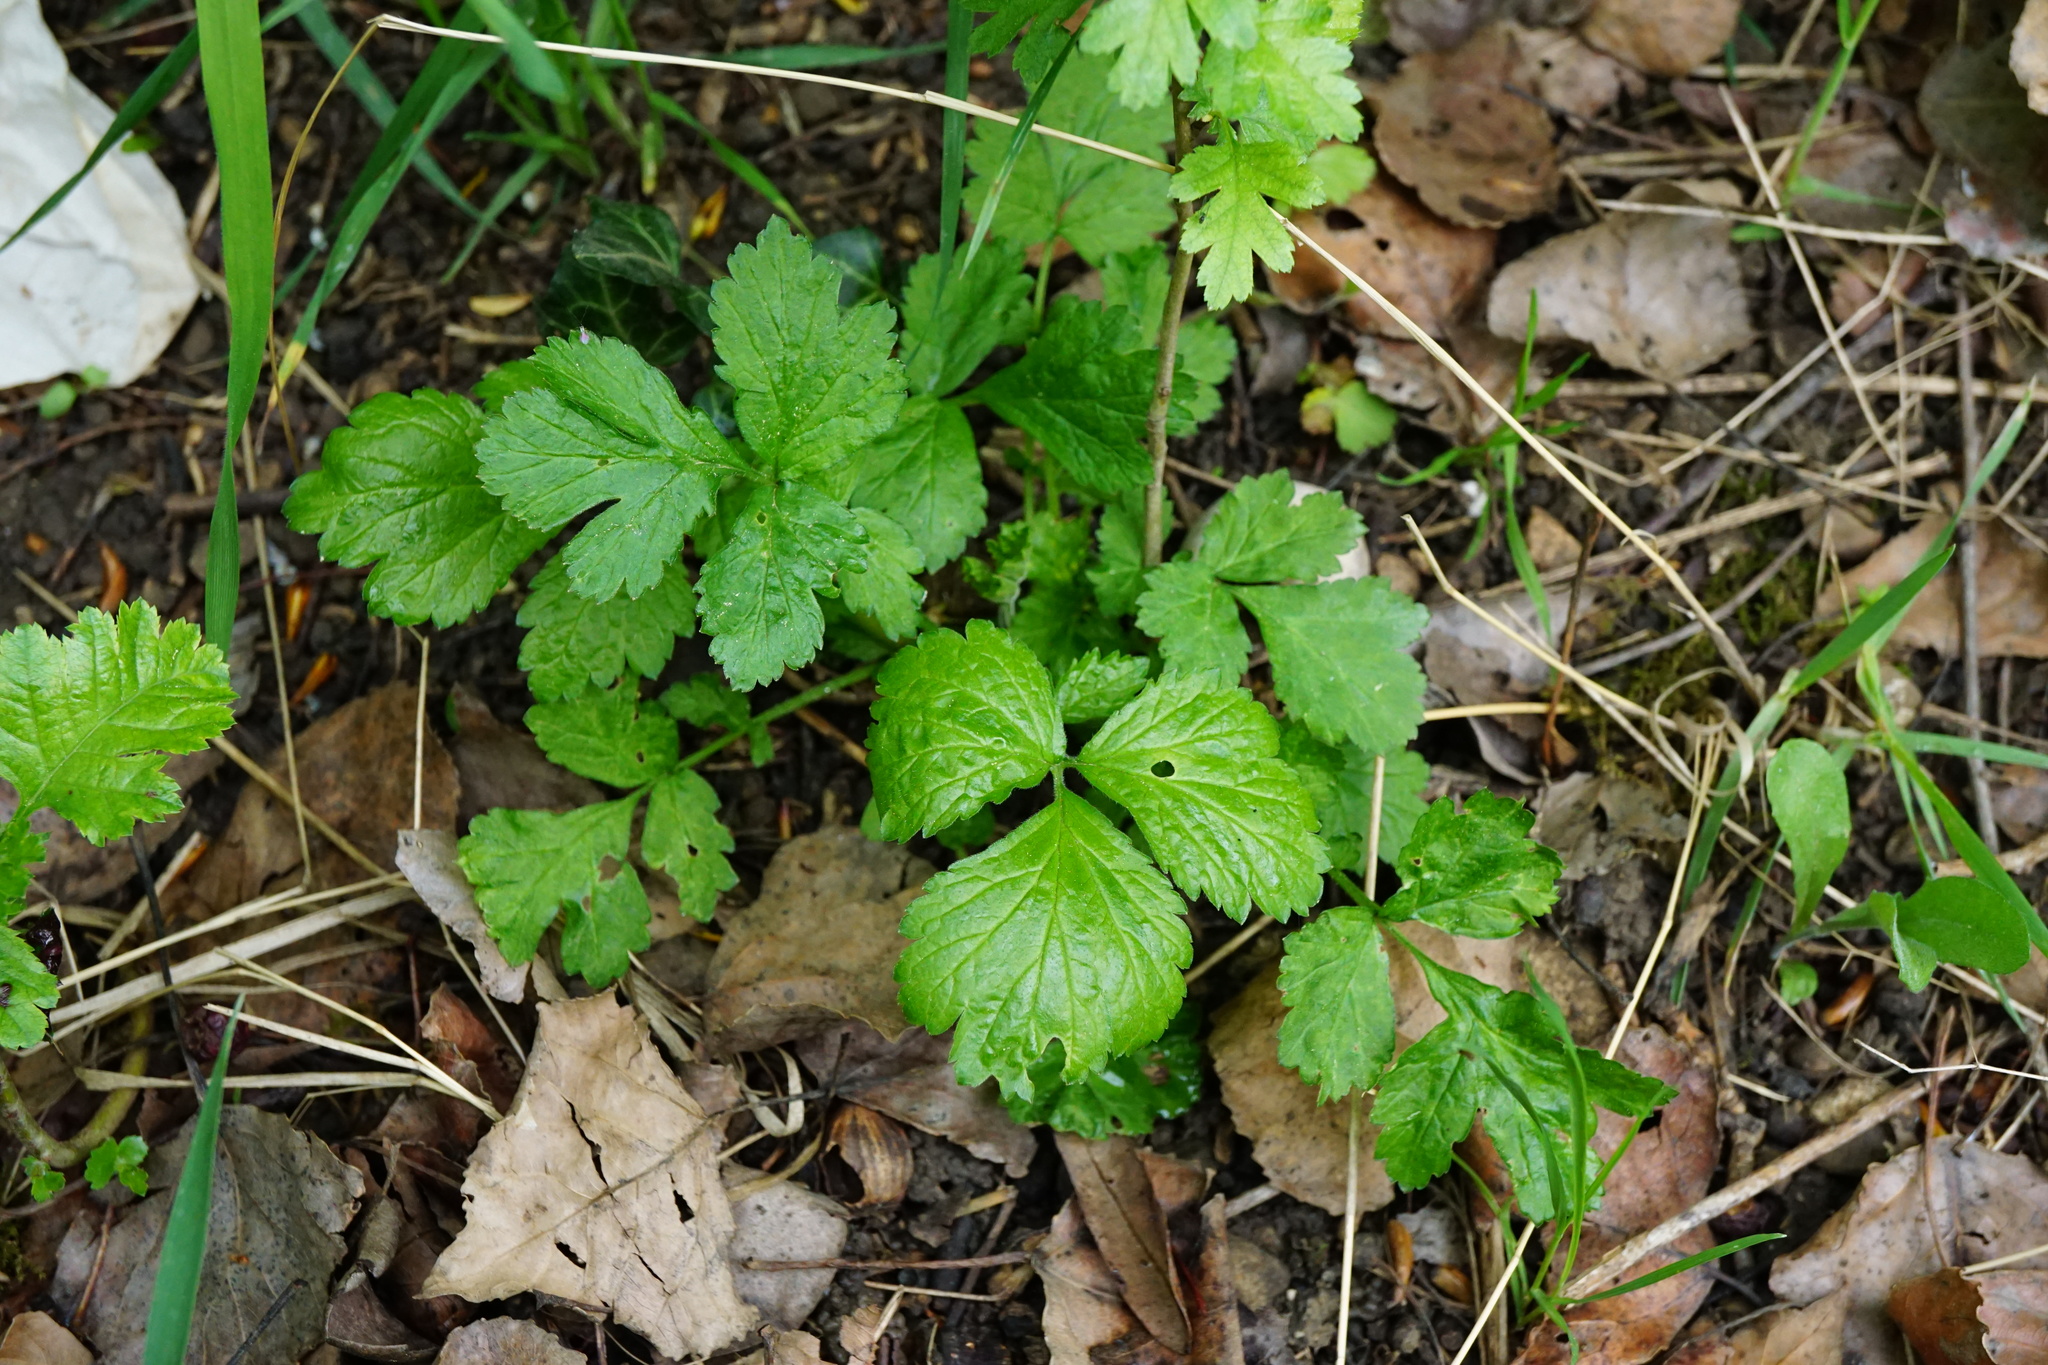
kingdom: Plantae
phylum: Tracheophyta
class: Magnoliopsida
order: Rosales
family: Rosaceae
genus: Geum
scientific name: Geum urbanum
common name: Wood avens
